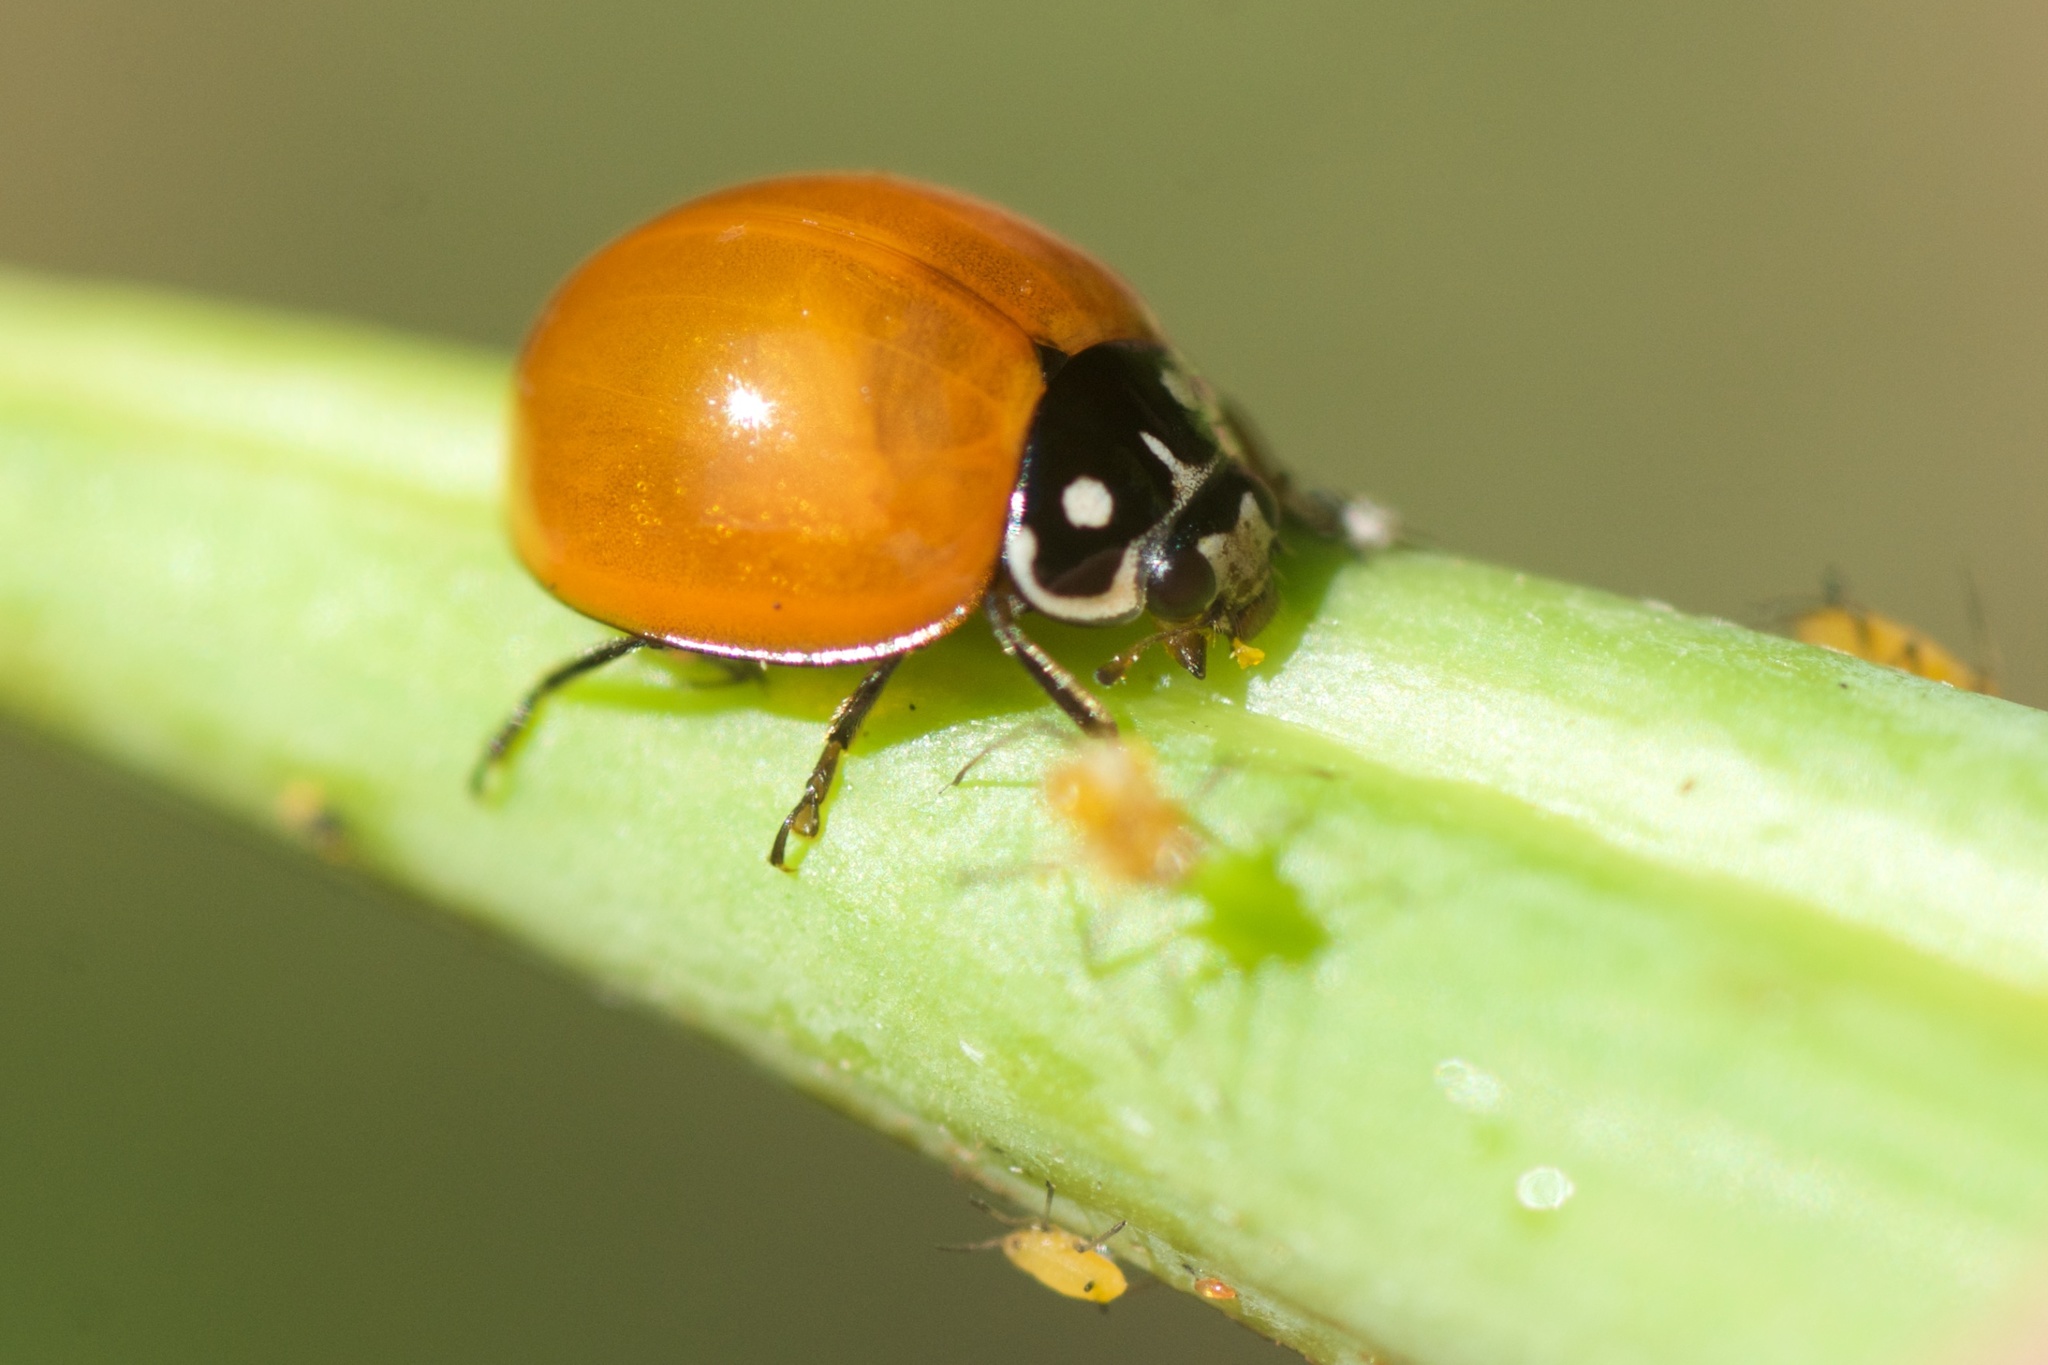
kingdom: Animalia
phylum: Arthropoda
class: Insecta
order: Coleoptera
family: Coccinellidae
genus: Cycloneda
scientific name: Cycloneda sanguinea
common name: Ladybird beetle
